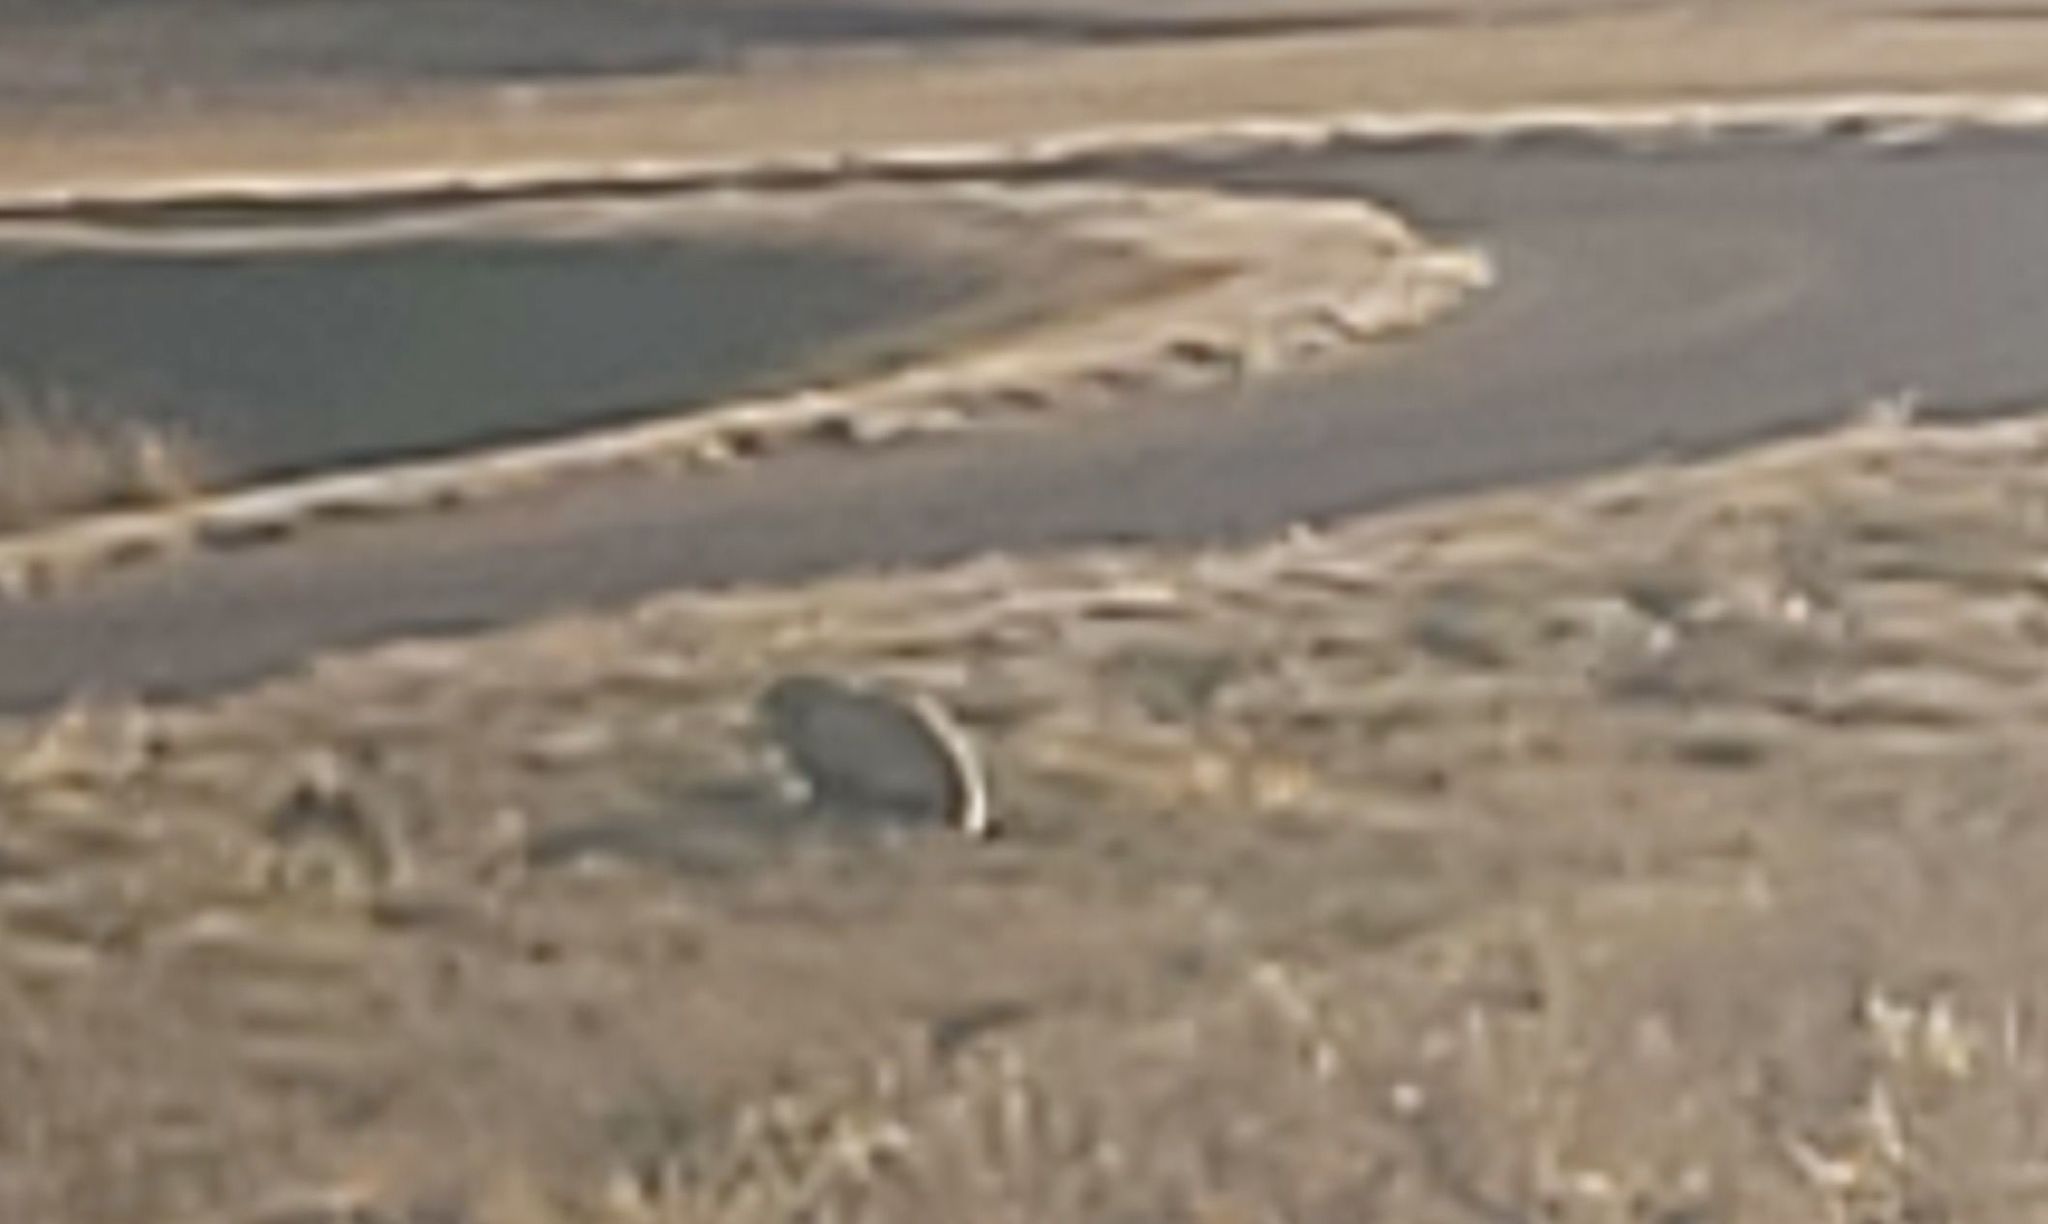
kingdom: Animalia
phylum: Chordata
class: Mammalia
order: Carnivora
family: Mustelidae
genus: Taxidea
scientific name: Taxidea taxus
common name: American badger
